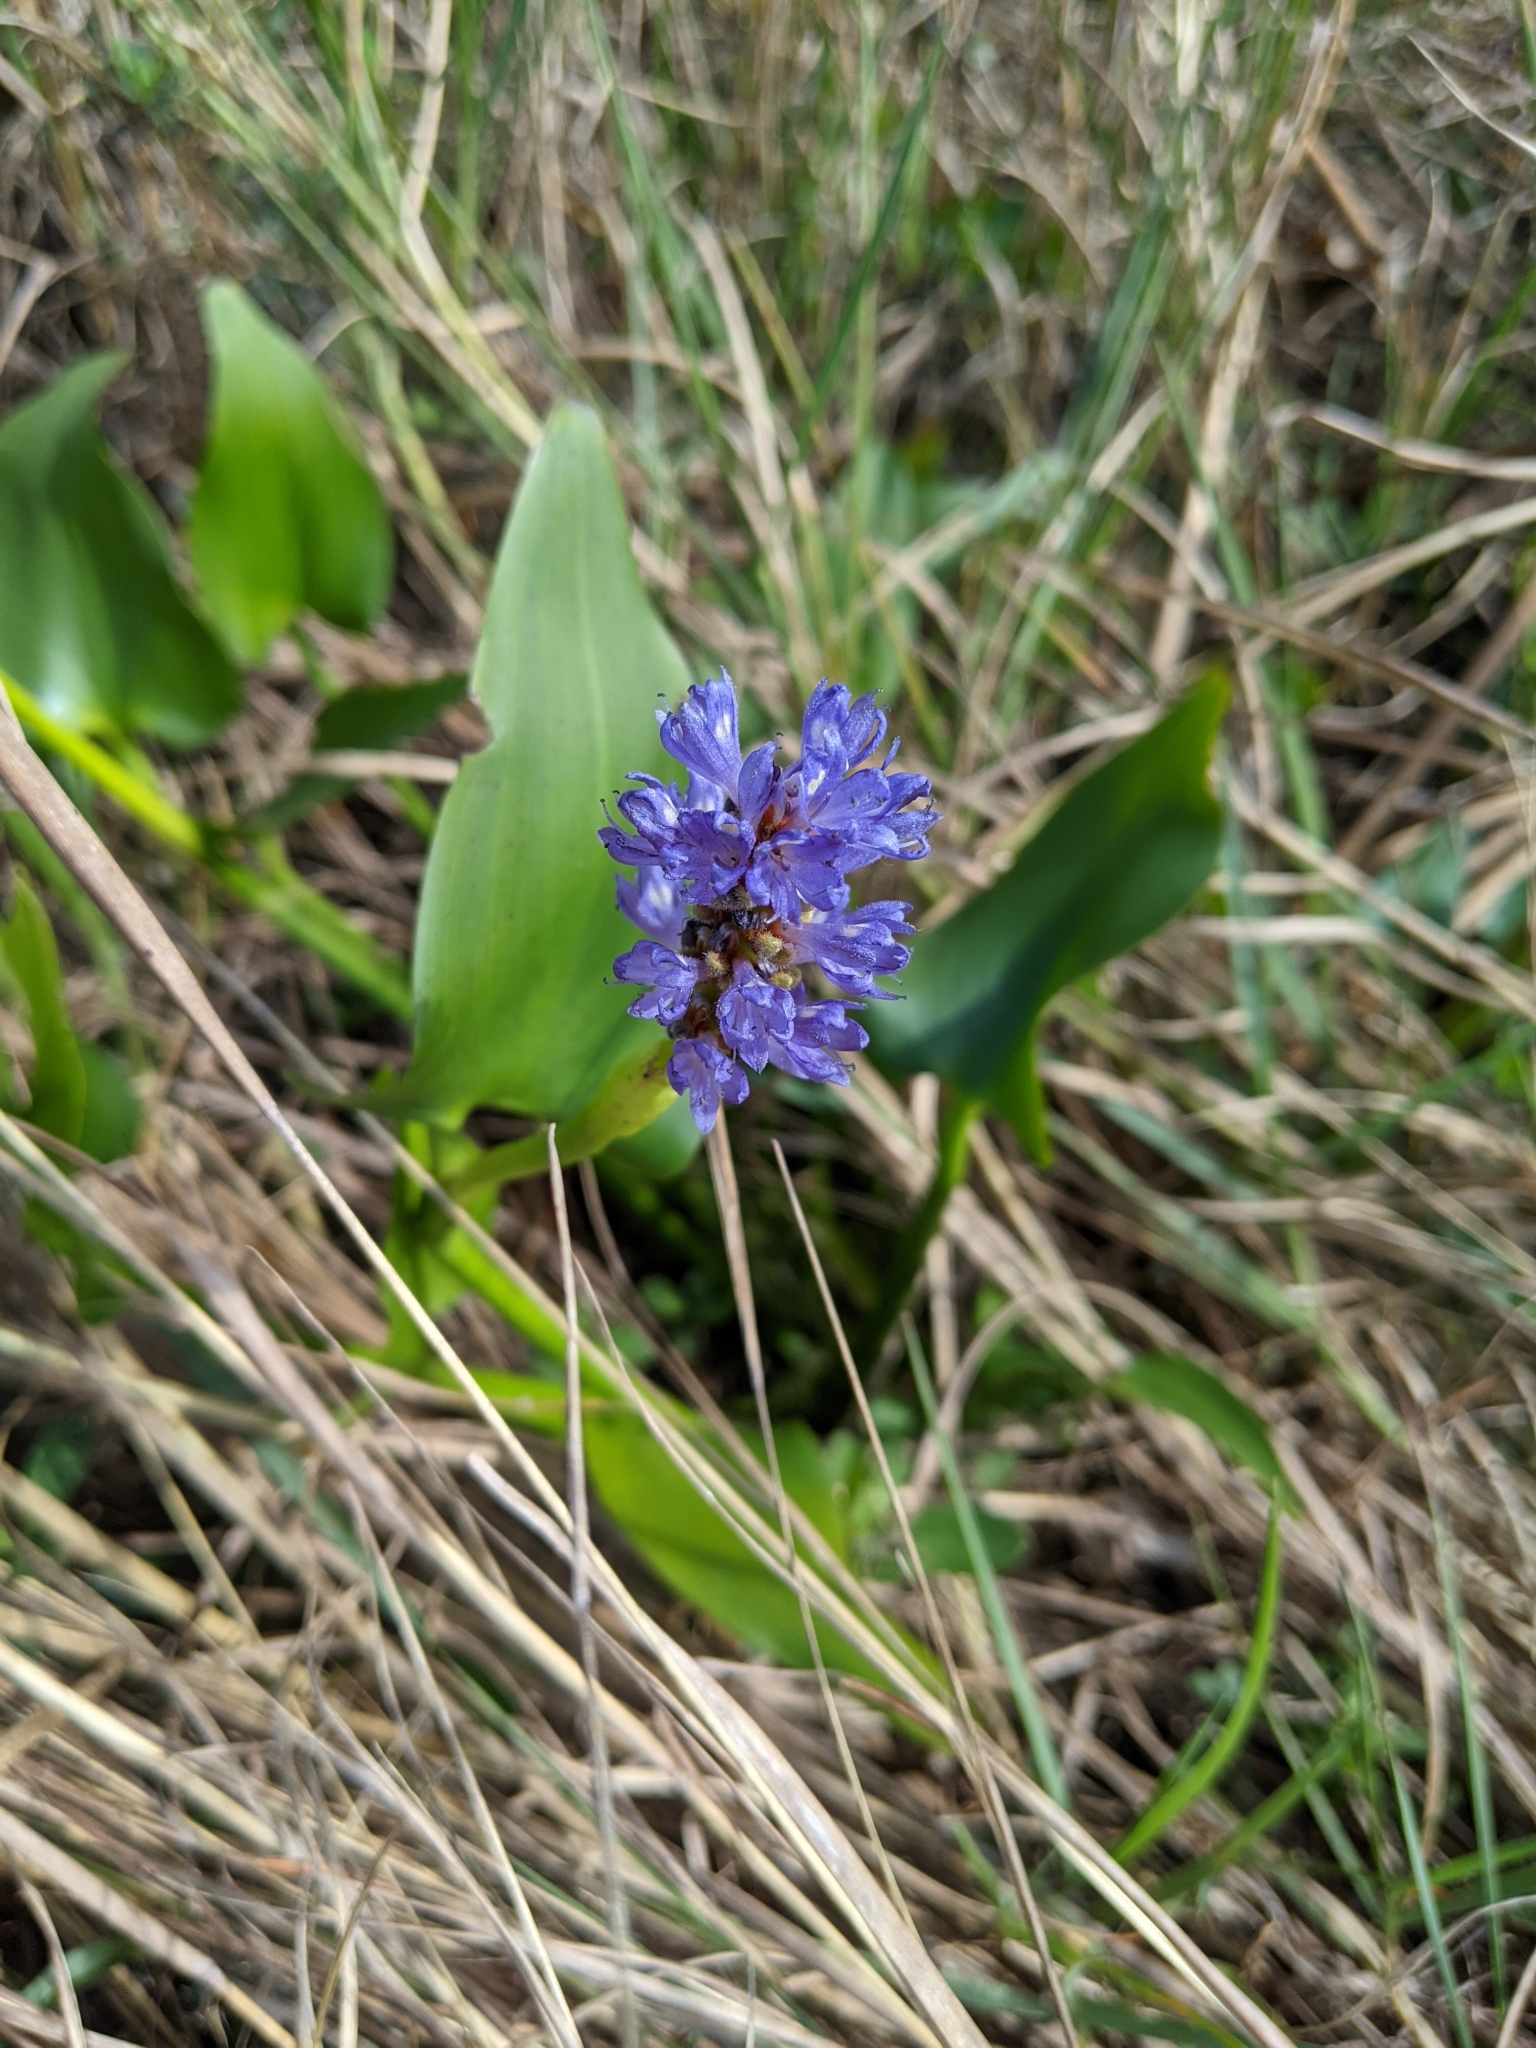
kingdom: Plantae
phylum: Tracheophyta
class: Liliopsida
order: Commelinales
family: Pontederiaceae
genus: Pontederia
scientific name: Pontederia cordata
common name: Pickerelweed
